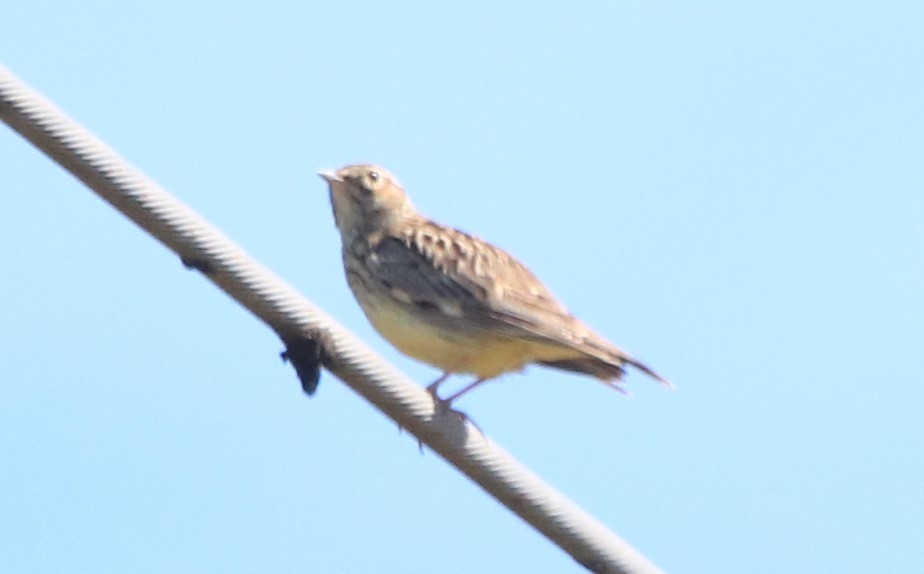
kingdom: Animalia
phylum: Chordata
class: Aves
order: Passeriformes
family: Alaudidae
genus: Lullula
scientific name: Lullula arborea
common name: Woodlark
